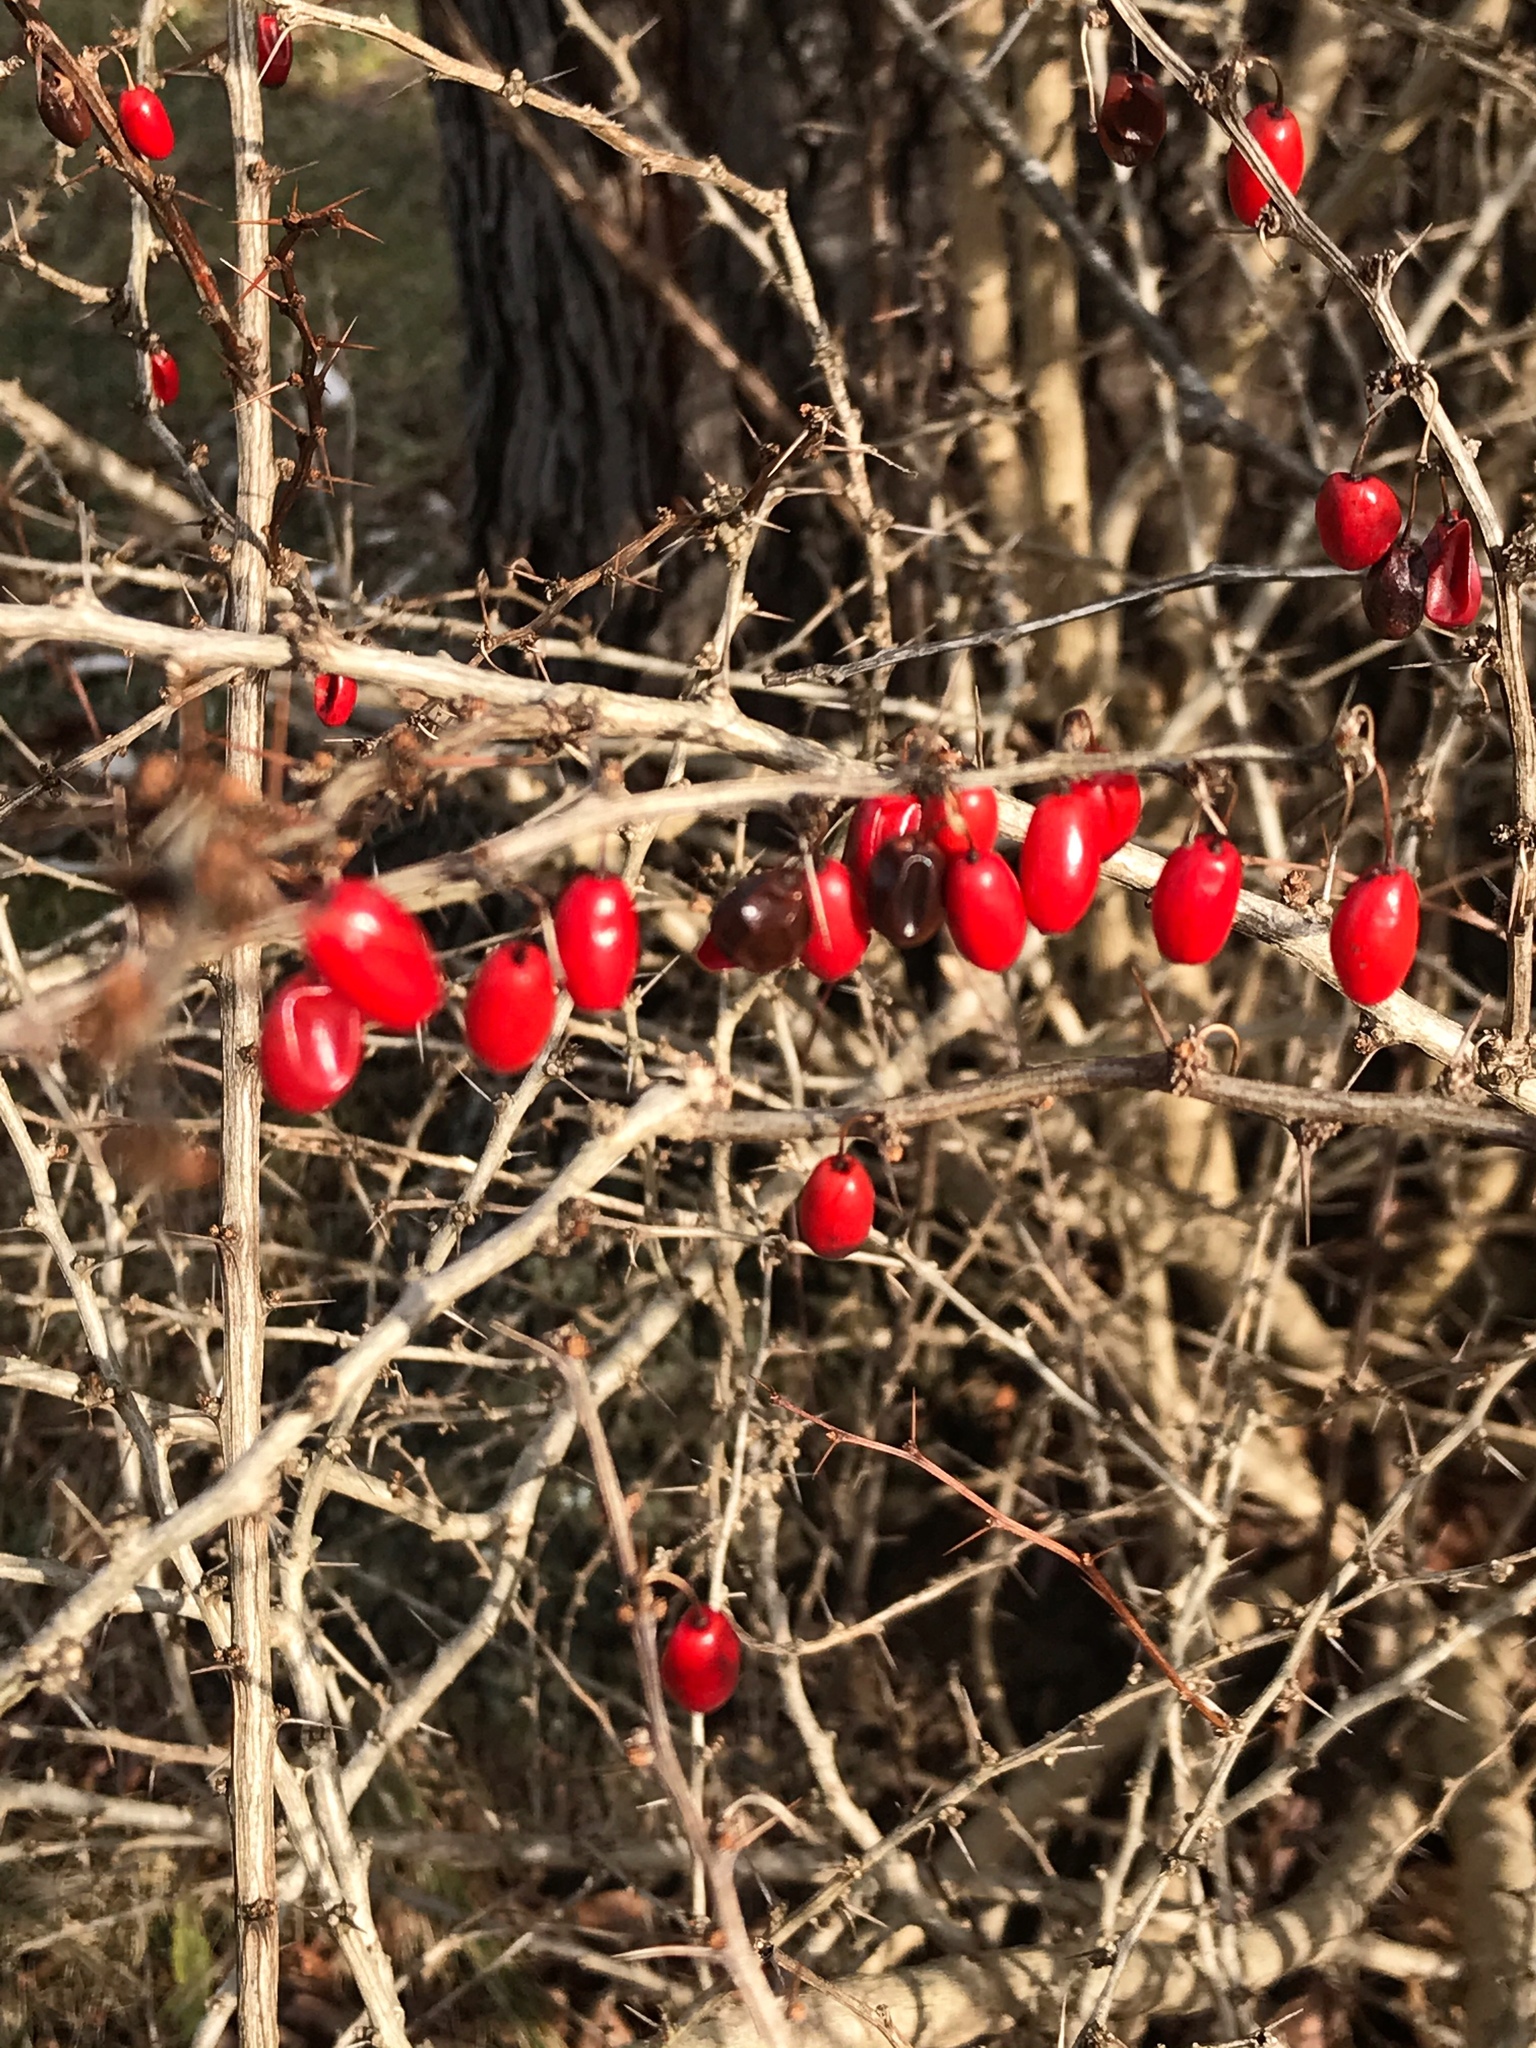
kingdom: Plantae
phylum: Tracheophyta
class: Magnoliopsida
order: Ranunculales
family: Berberidaceae
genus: Berberis
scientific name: Berberis thunbergii
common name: Japanese barberry
